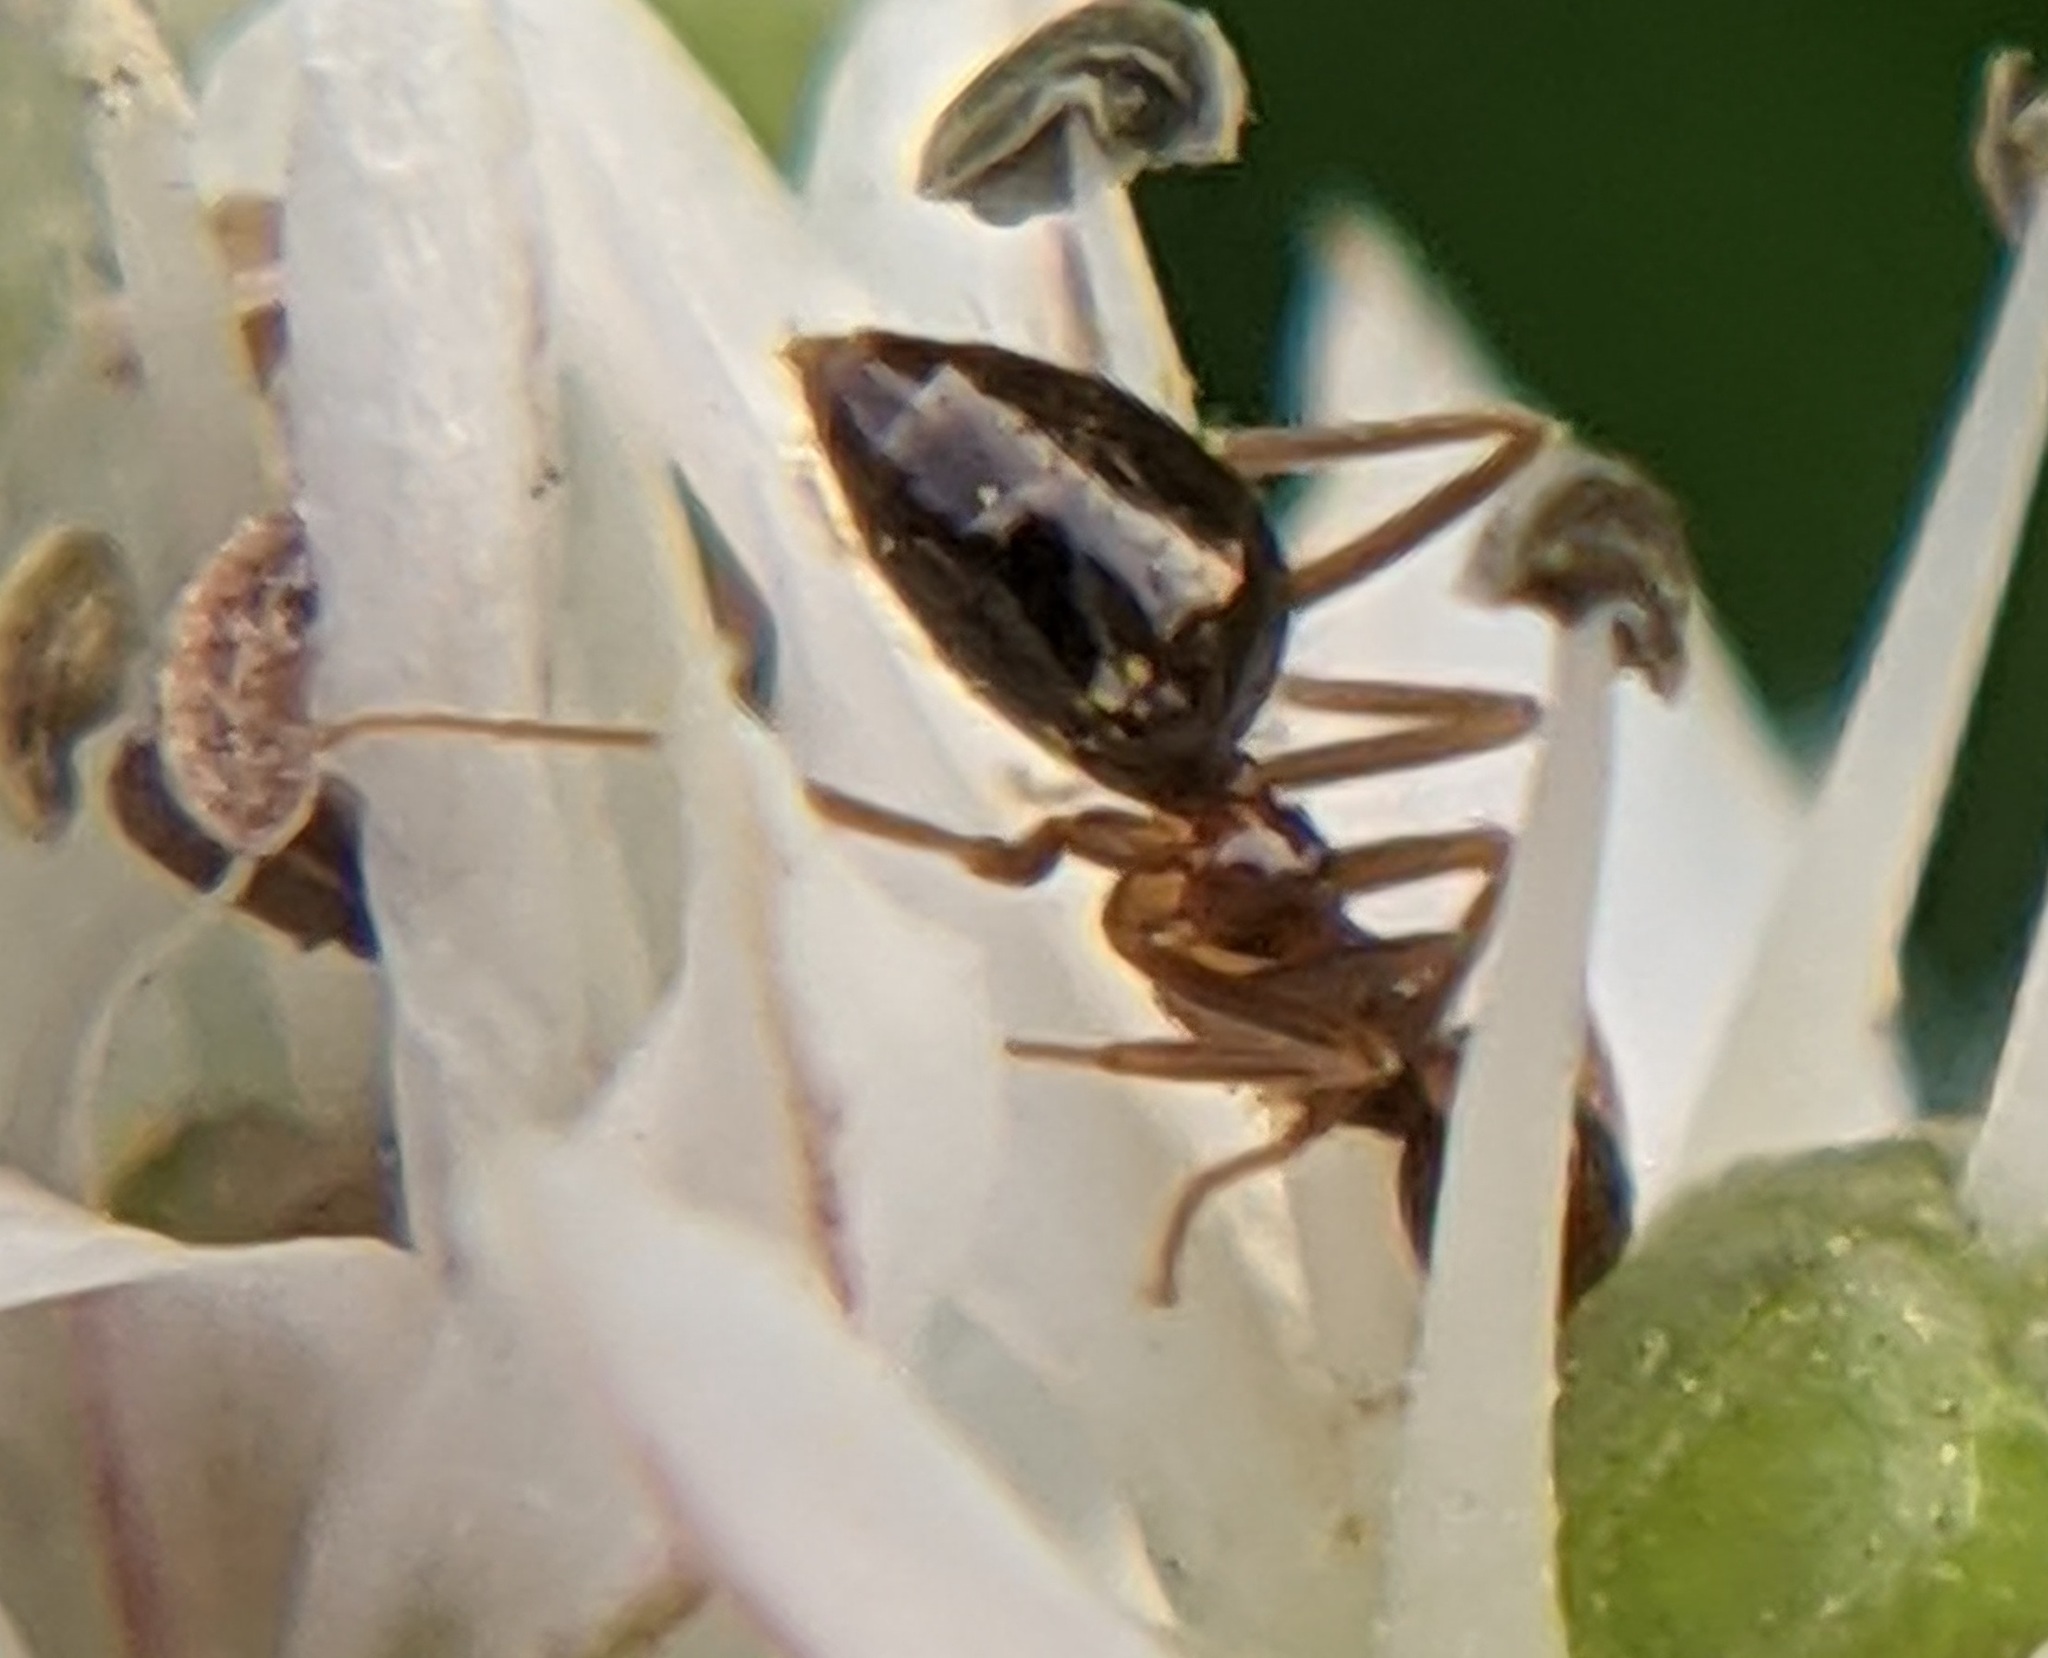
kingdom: Animalia
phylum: Arthropoda
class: Insecta
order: Hymenoptera
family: Formicidae
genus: Prenolepis
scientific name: Prenolepis imparis
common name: Small honey ant
